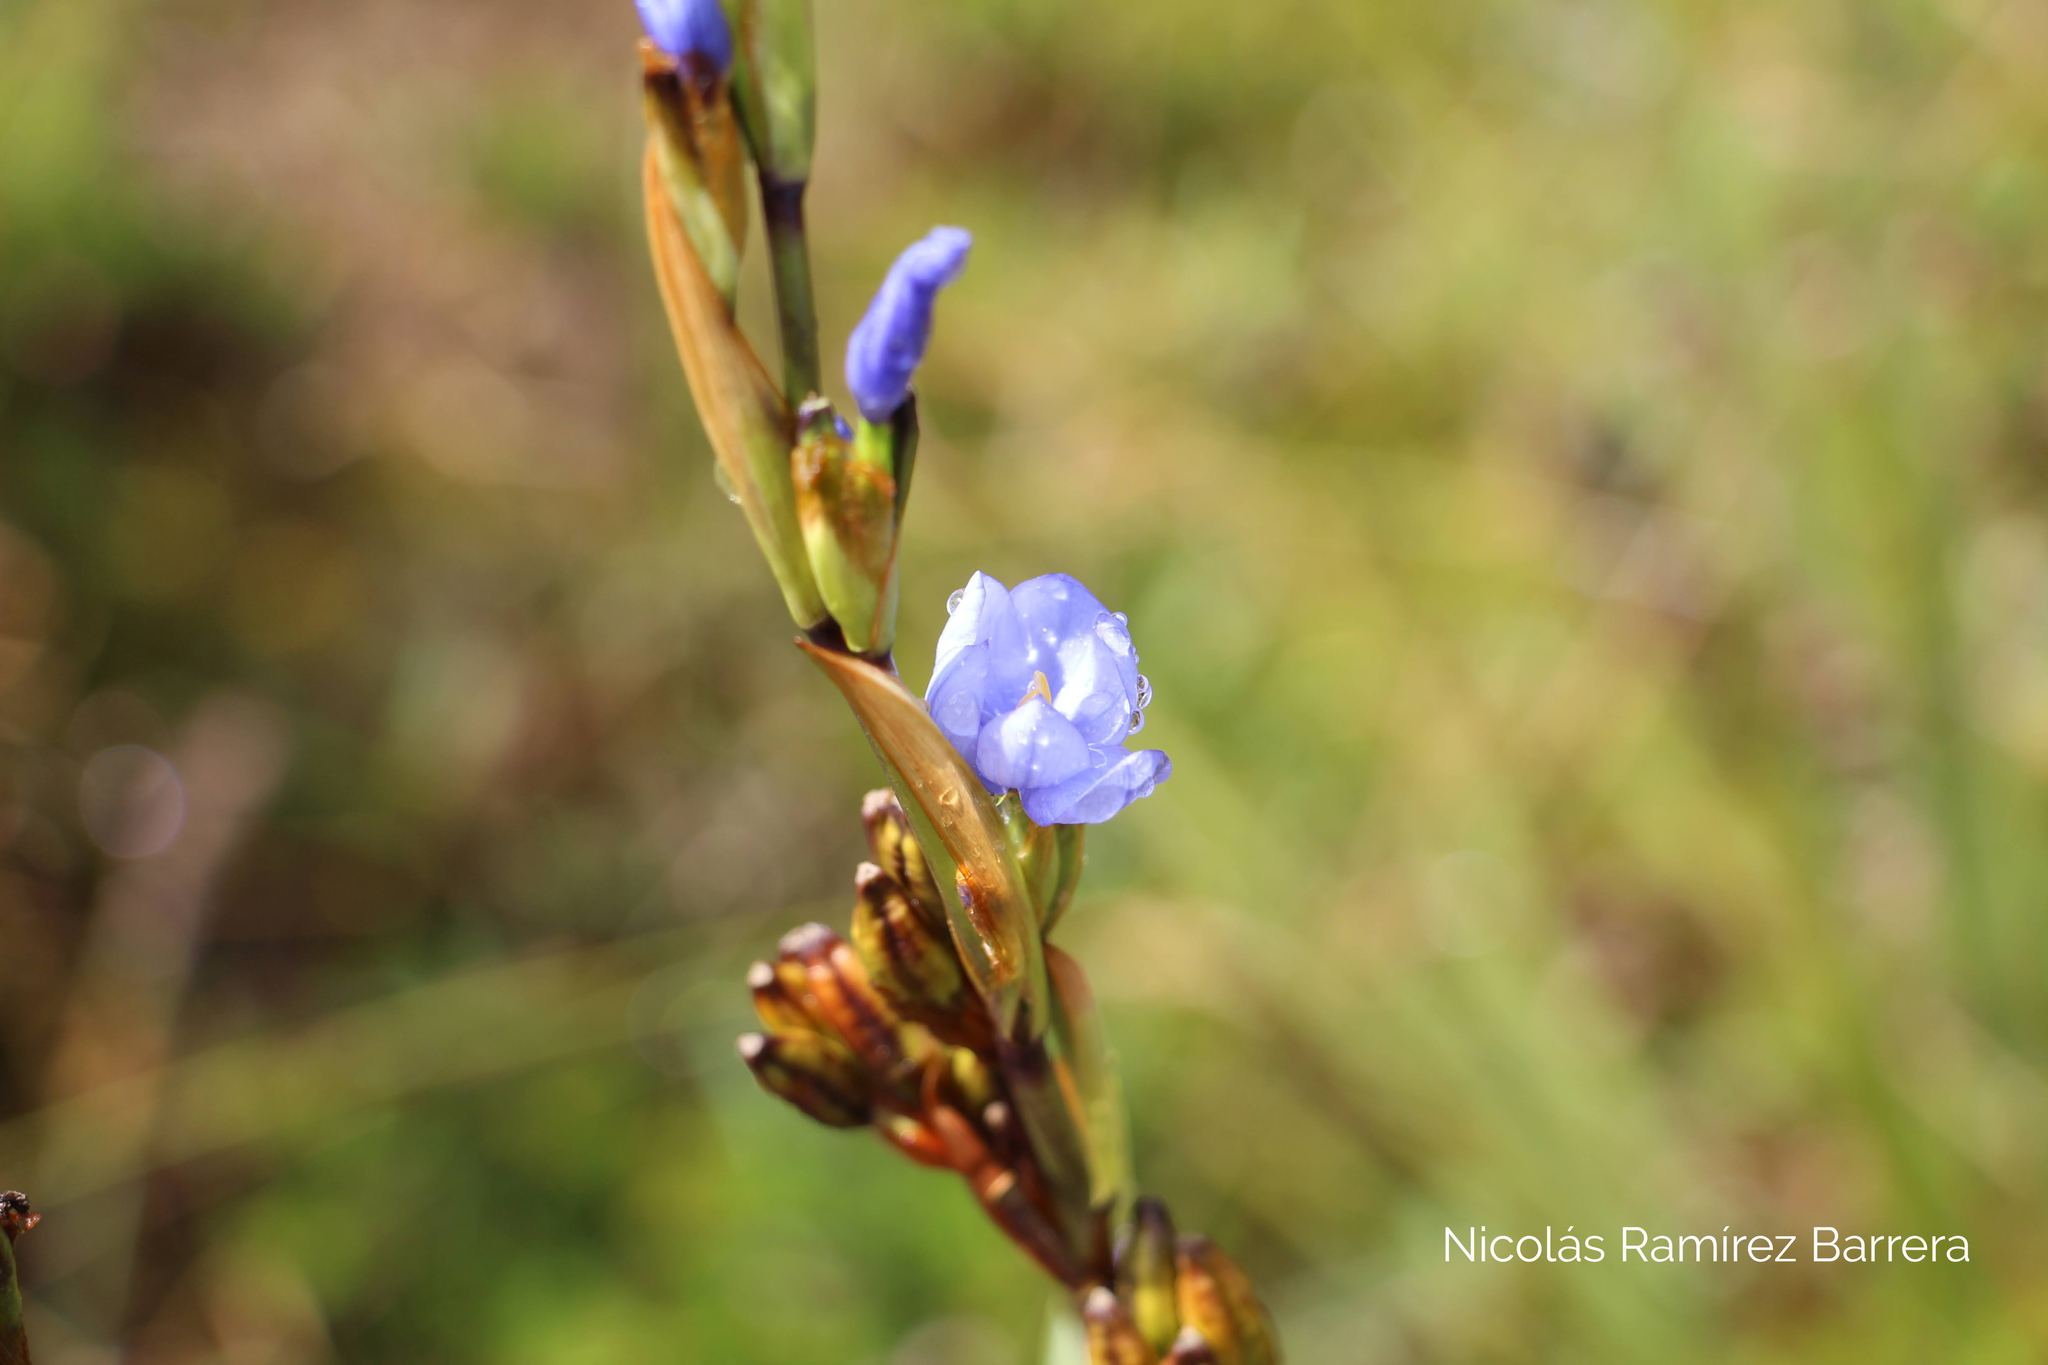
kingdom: Plantae
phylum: Tracheophyta
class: Liliopsida
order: Asparagales
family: Iridaceae
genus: Orthrosanthus
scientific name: Orthrosanthus chimboracensis
